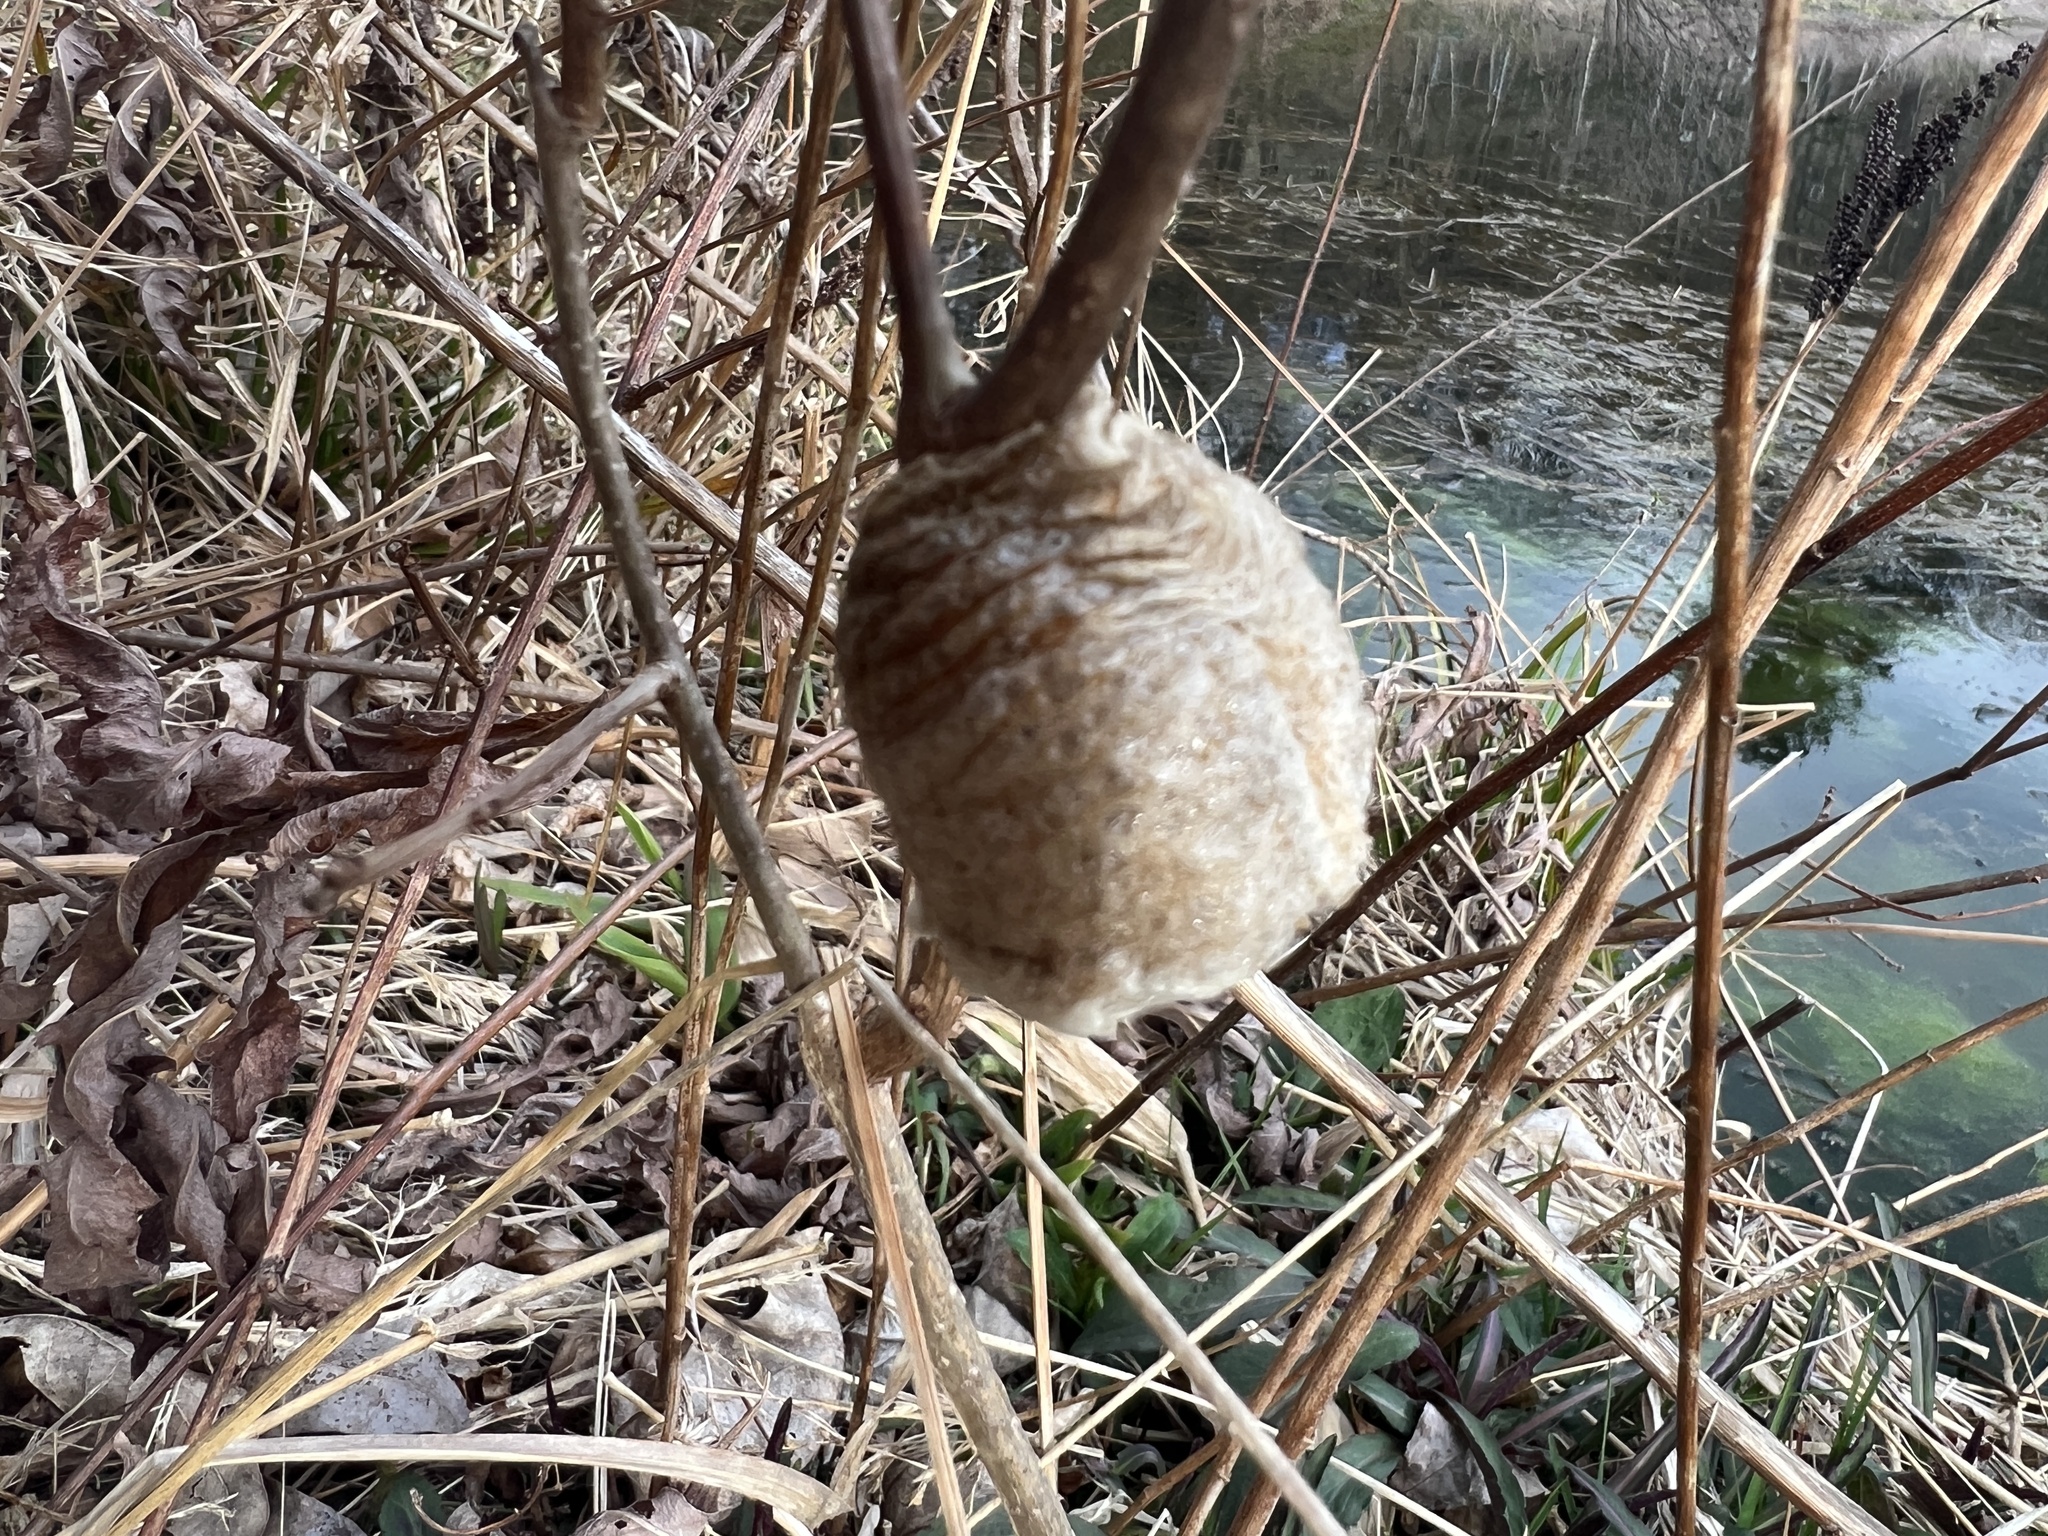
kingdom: Animalia
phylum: Arthropoda
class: Insecta
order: Mantodea
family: Mantidae
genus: Tenodera
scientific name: Tenodera sinensis
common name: Chinese mantis
